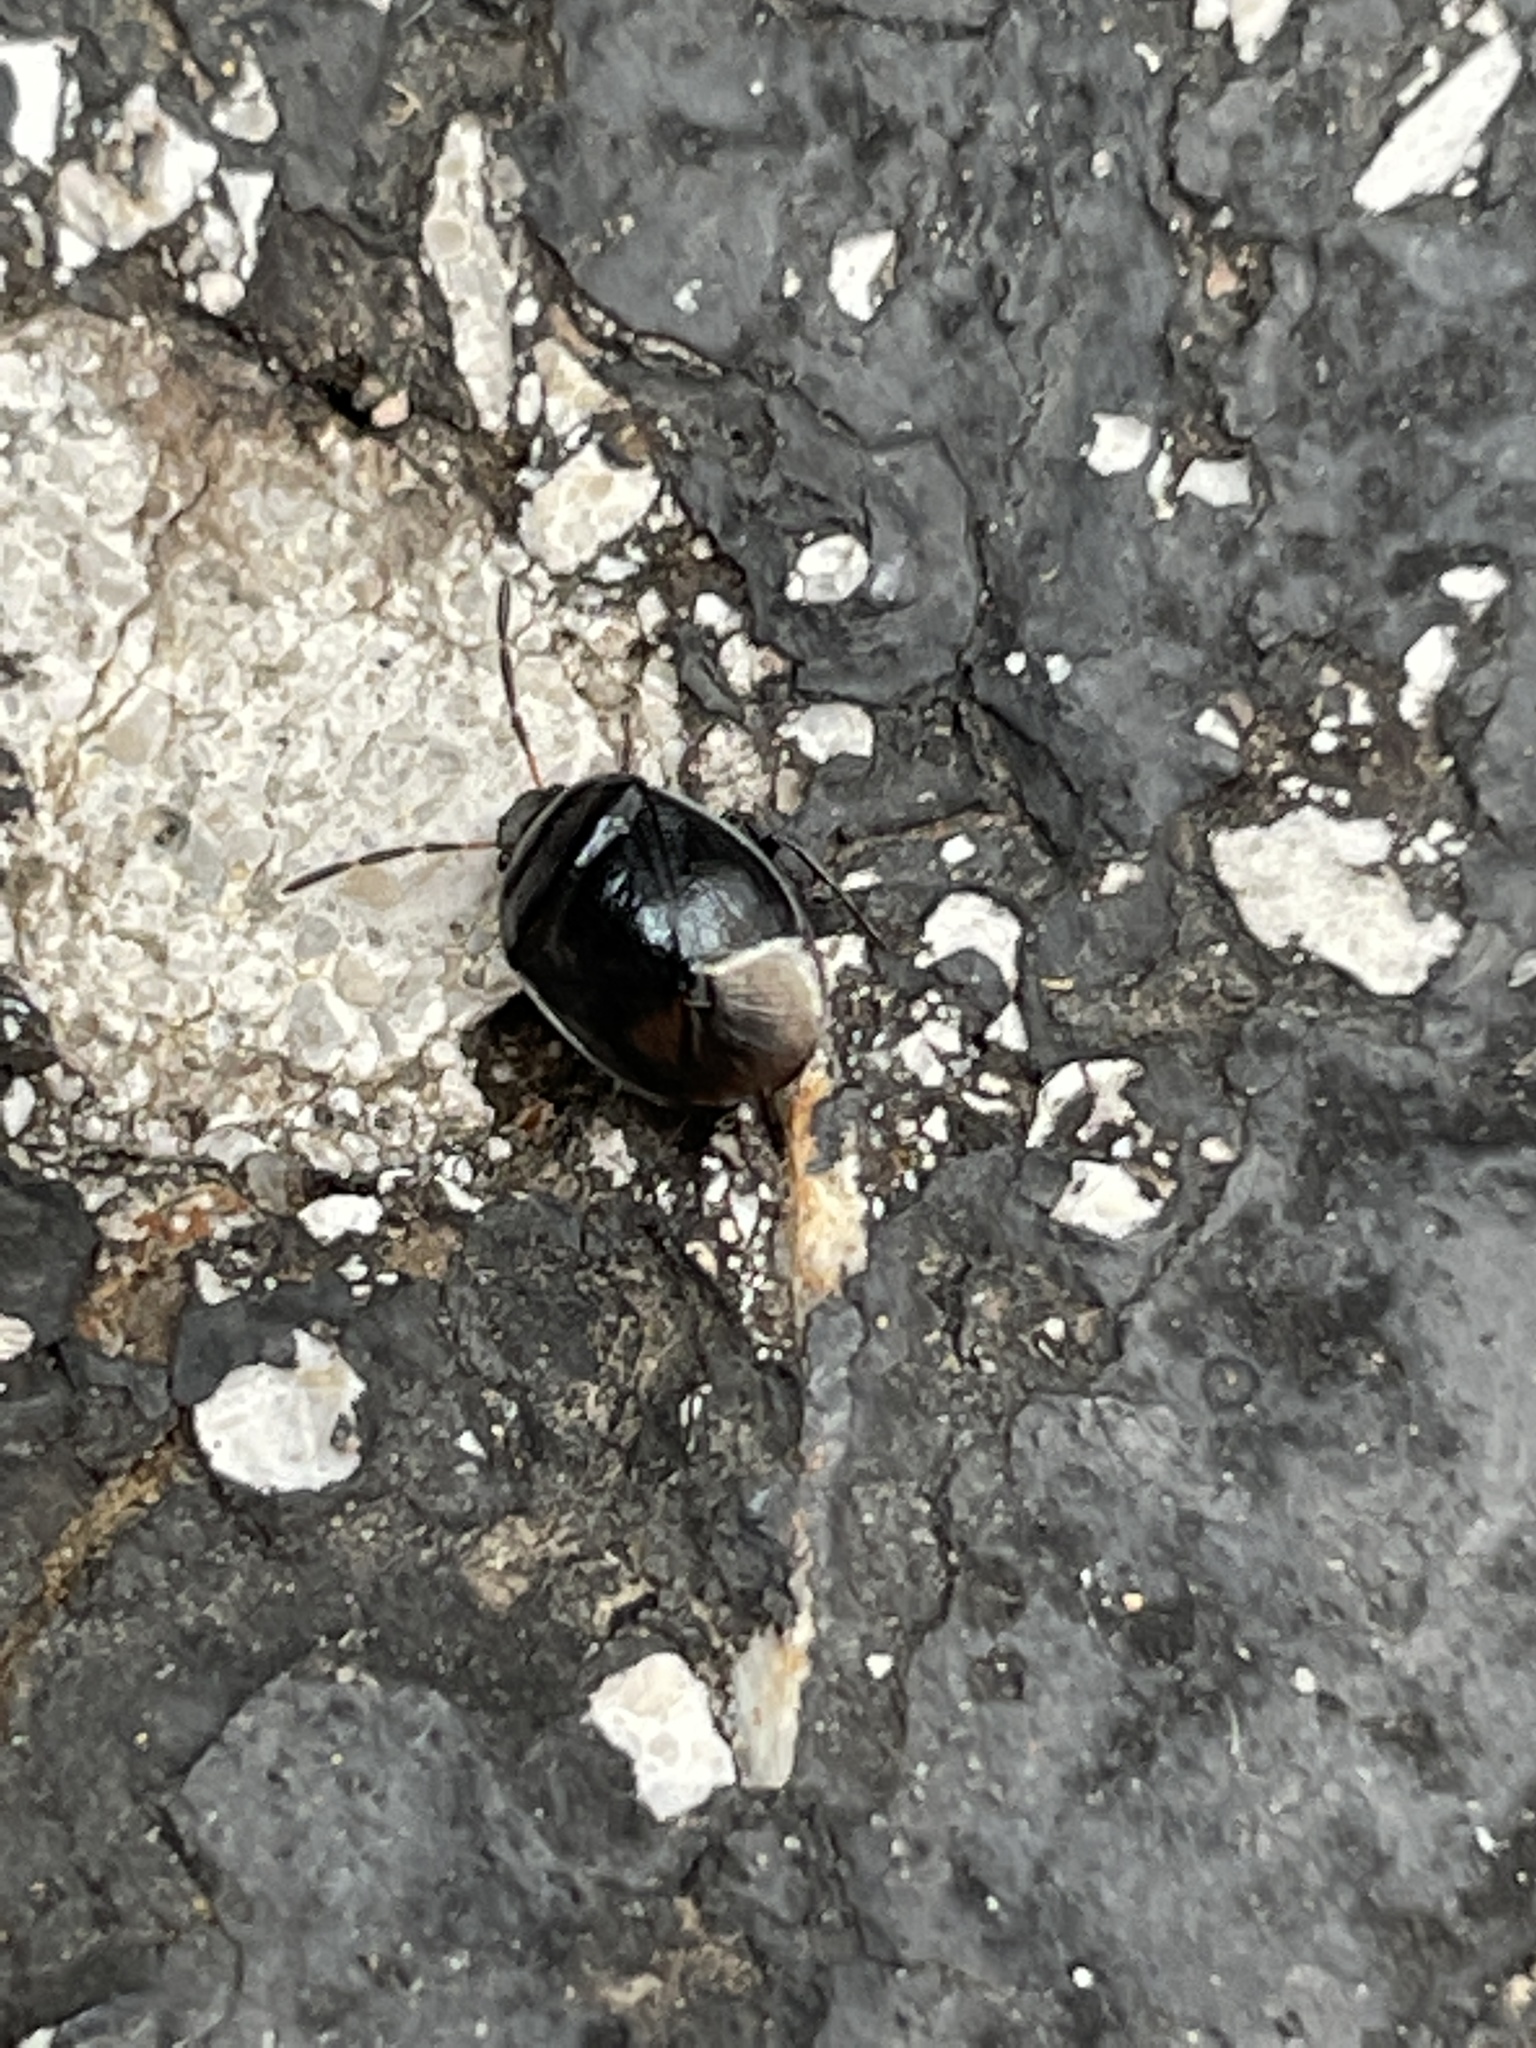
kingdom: Animalia
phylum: Arthropoda
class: Insecta
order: Hemiptera
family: Cydnidae
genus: Sehirus
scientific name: Sehirus cinctus
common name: White-margined burrower bug
